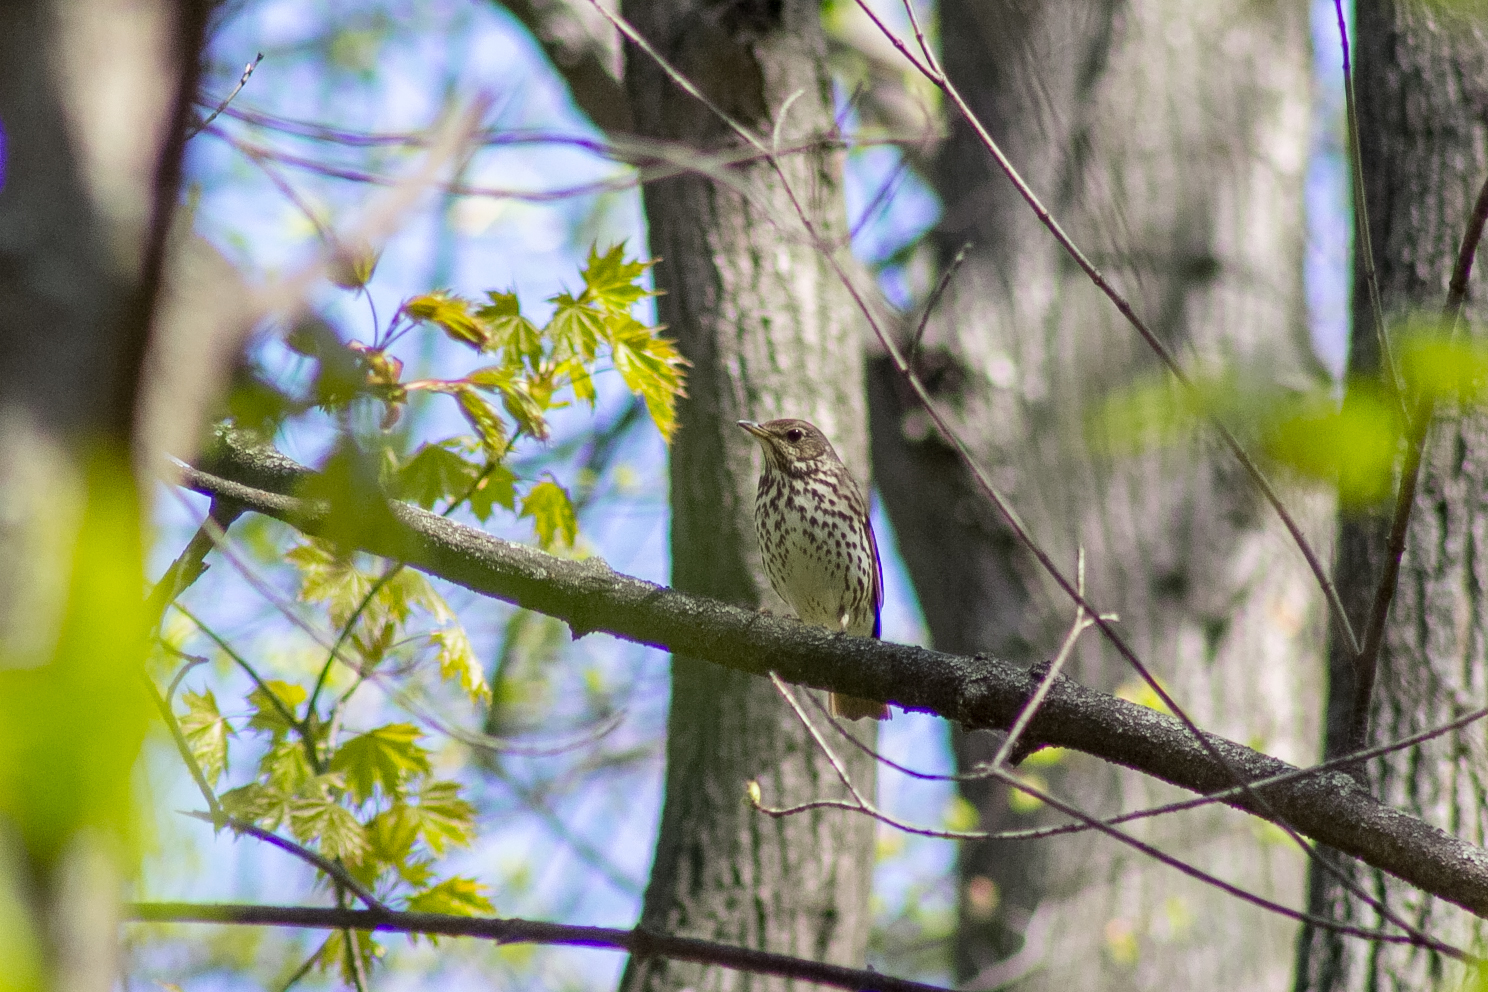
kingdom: Animalia
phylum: Chordata
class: Aves
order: Passeriformes
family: Turdidae
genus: Turdus
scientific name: Turdus philomelos
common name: Song thrush
